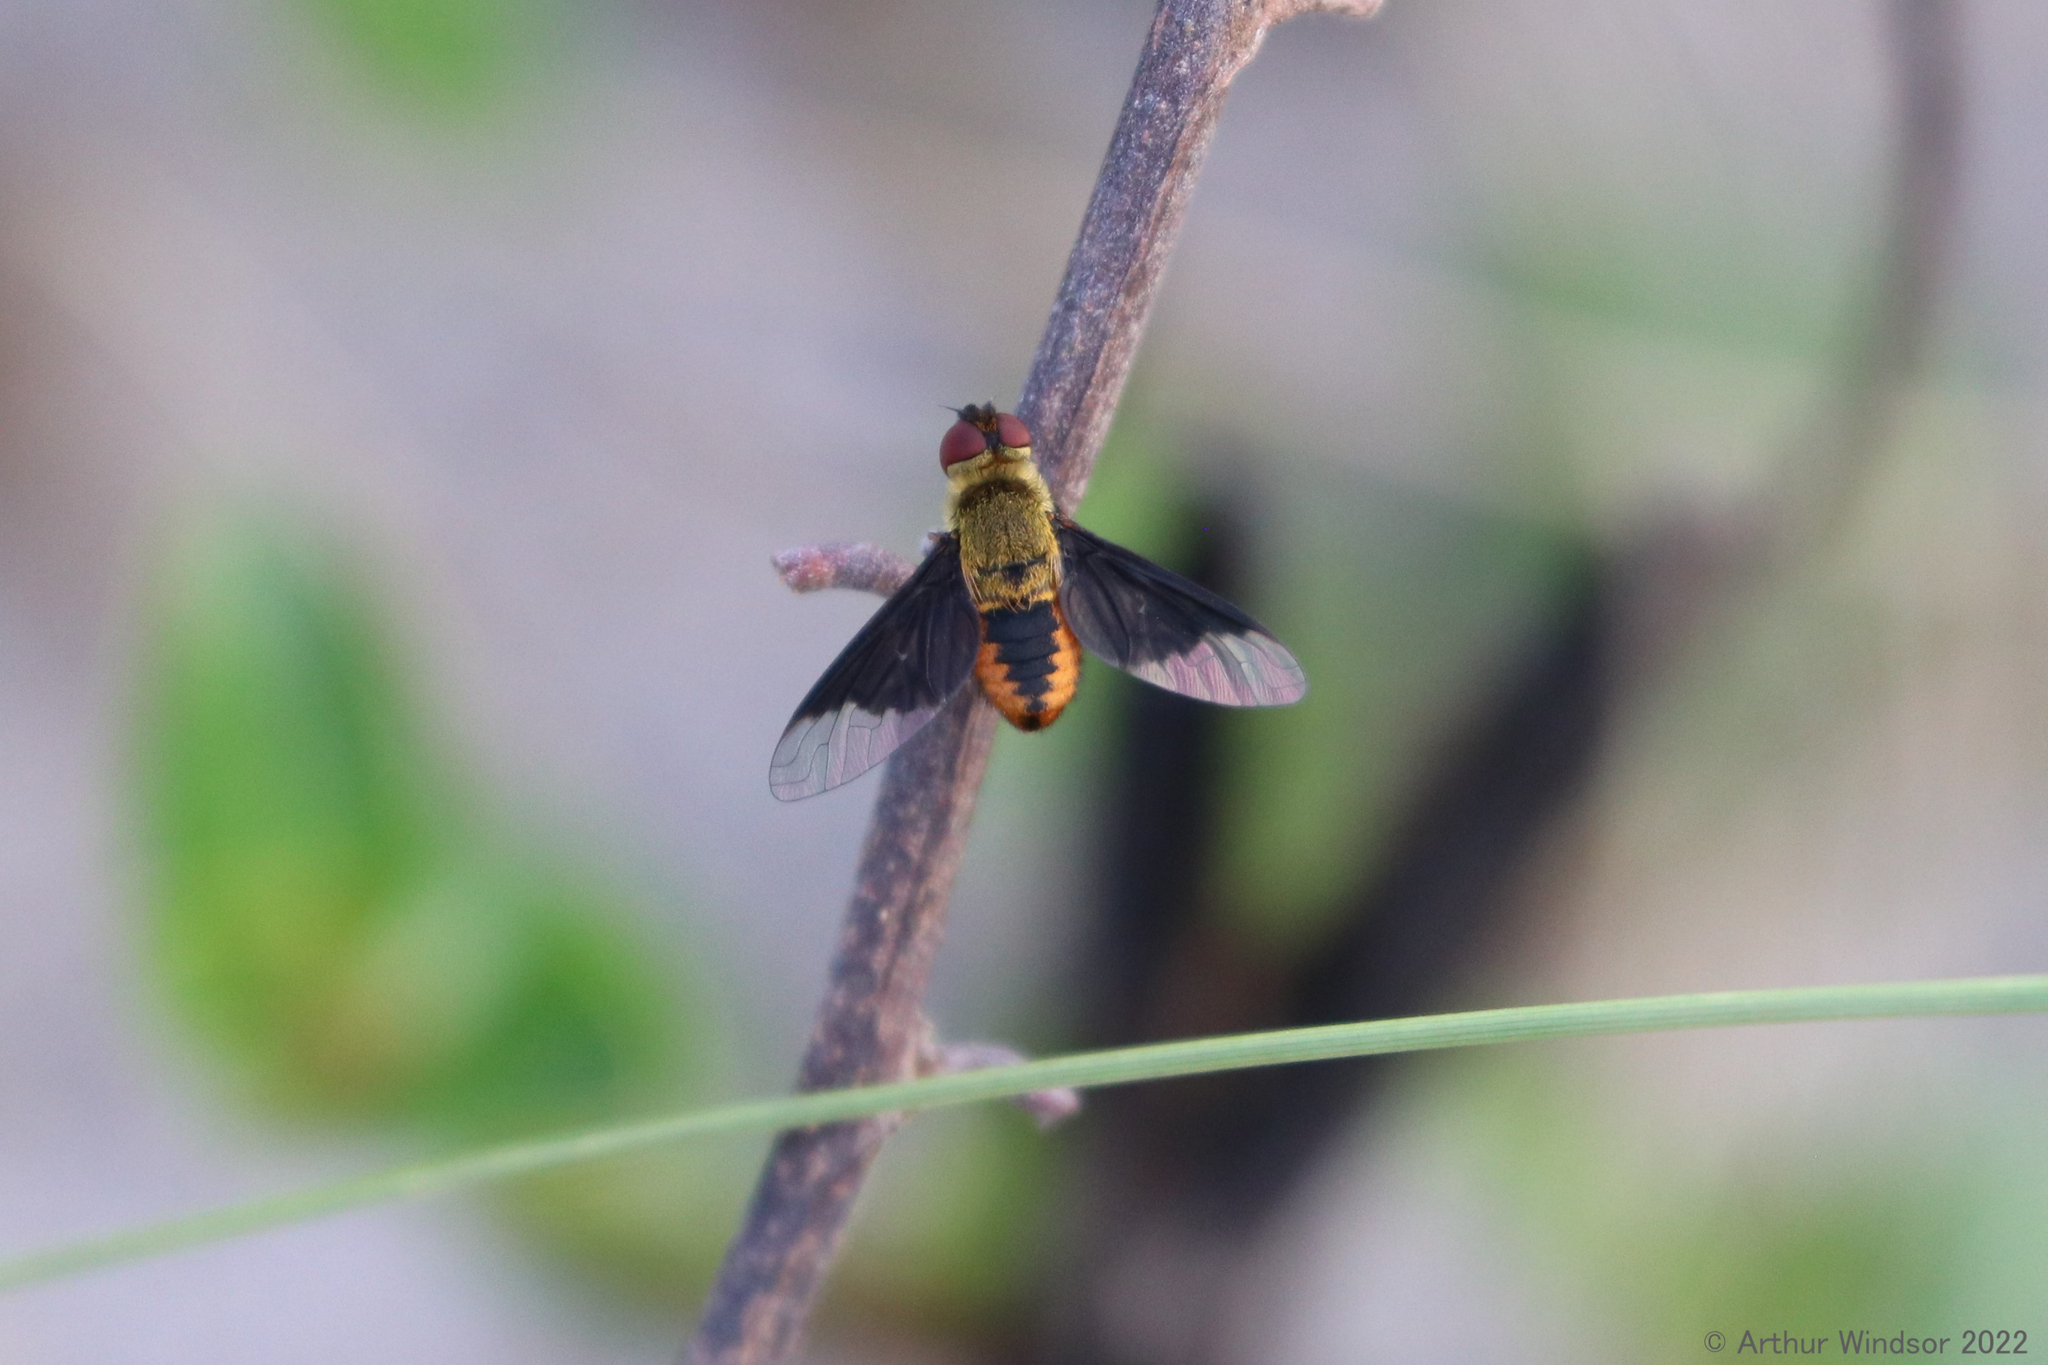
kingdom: Animalia
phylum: Arthropoda
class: Insecta
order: Diptera
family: Bombyliidae
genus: Chrysanthrax
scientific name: Chrysanthrax cypris
